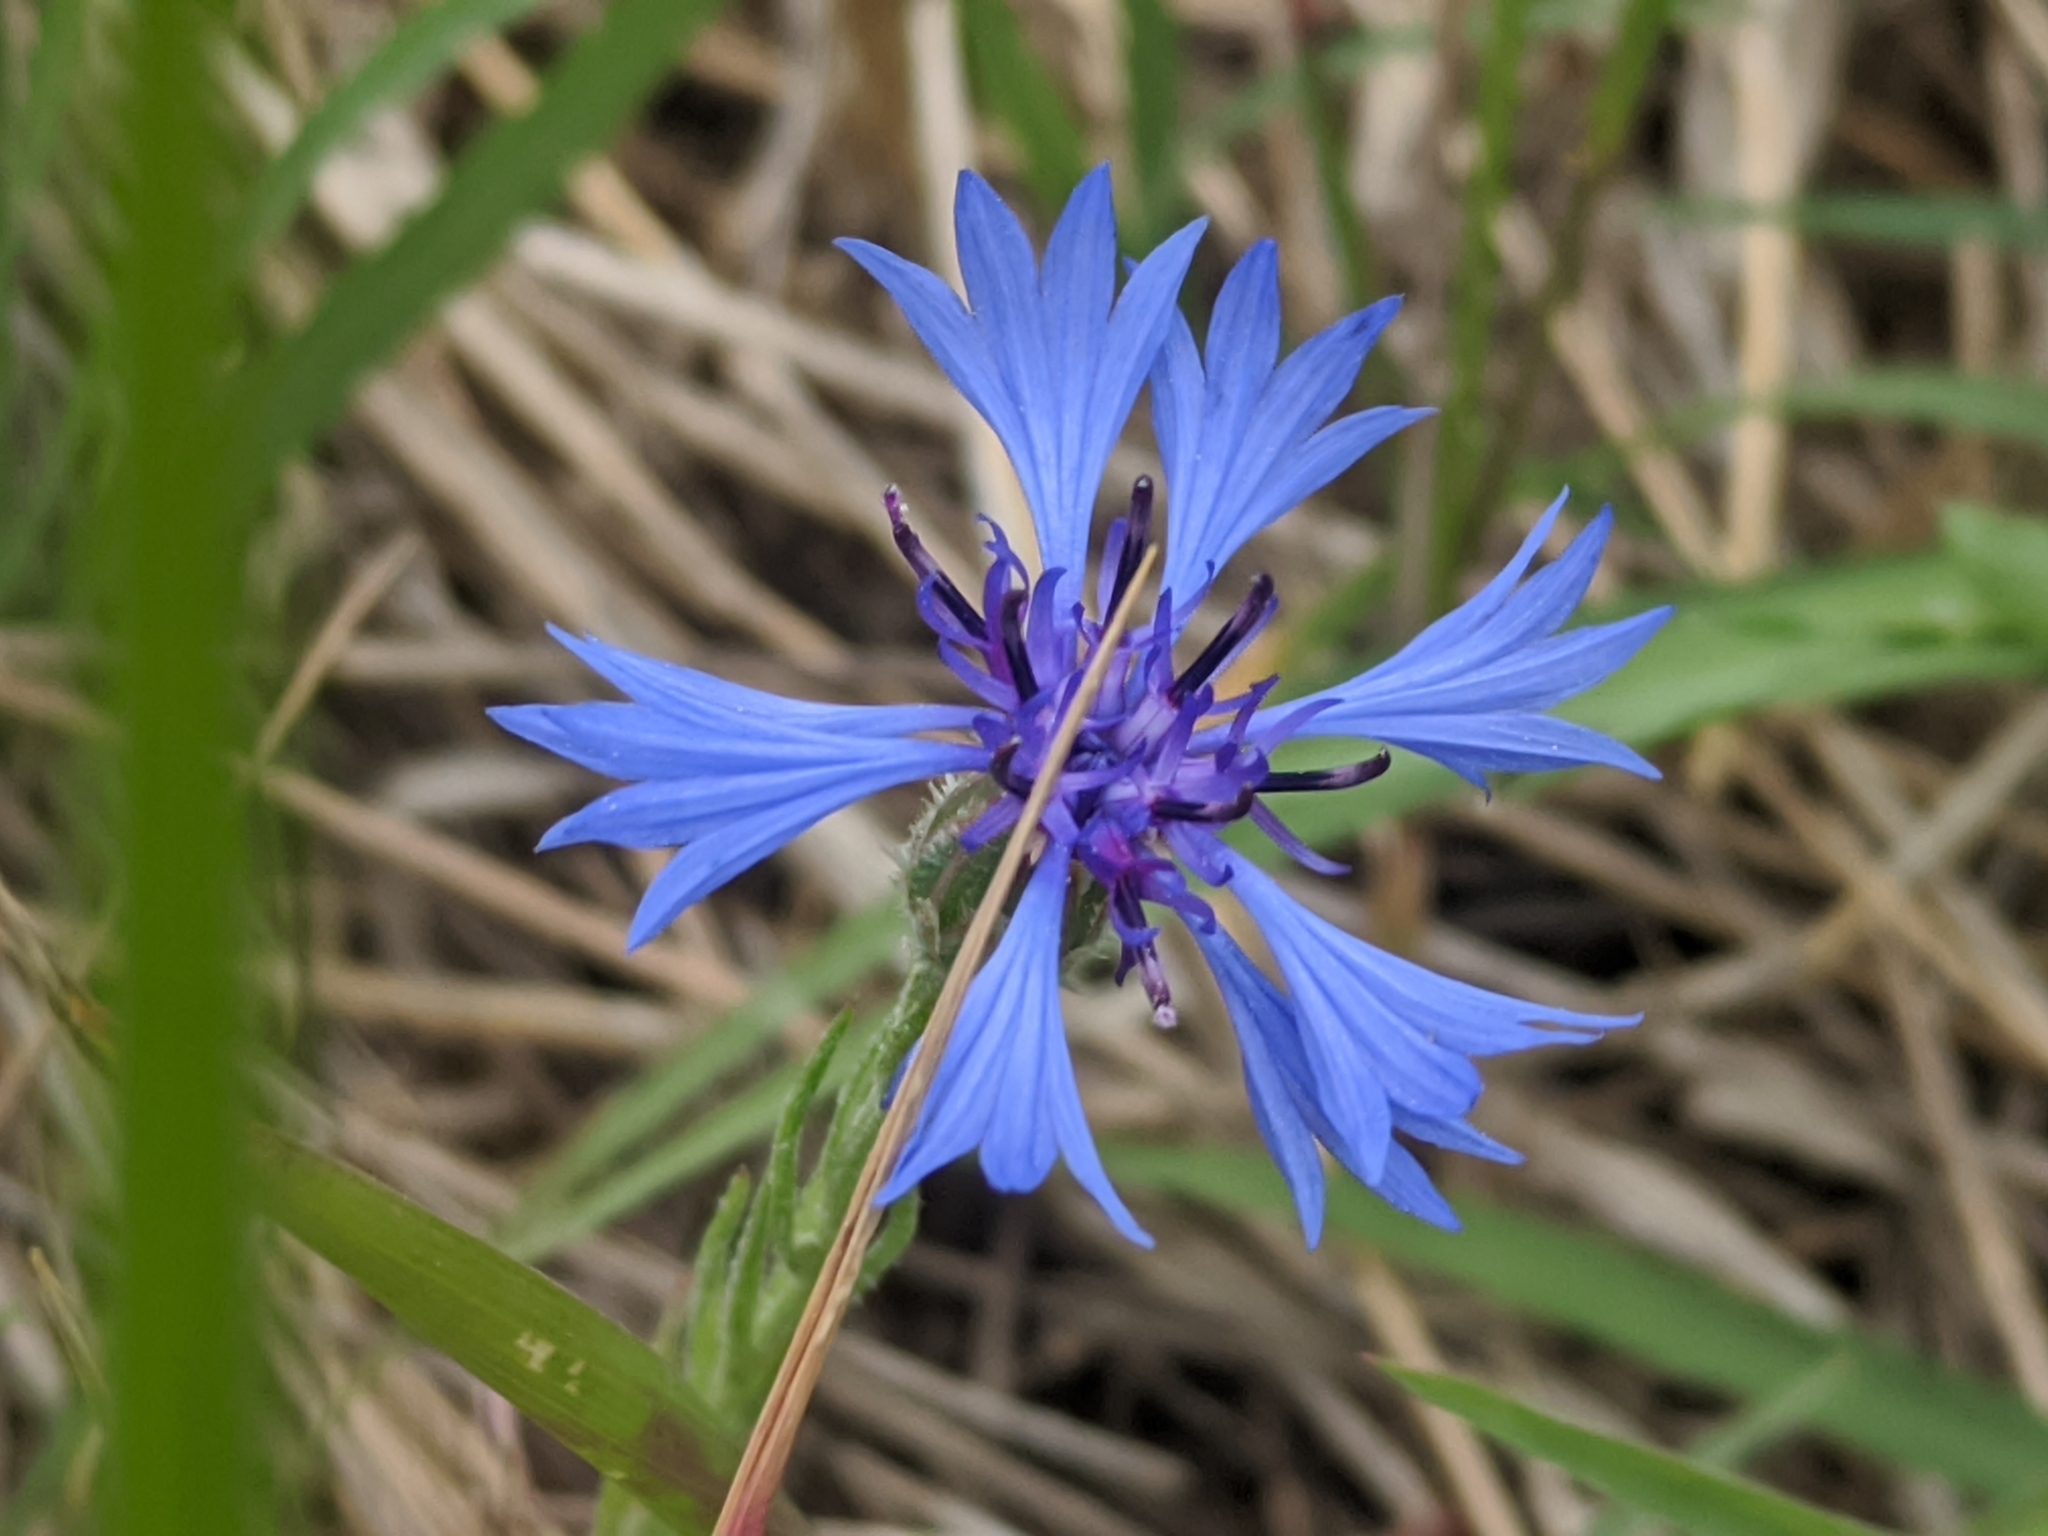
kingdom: Plantae
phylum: Tracheophyta
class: Magnoliopsida
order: Asterales
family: Asteraceae
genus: Centaurea
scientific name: Centaurea cyanus
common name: Cornflower
